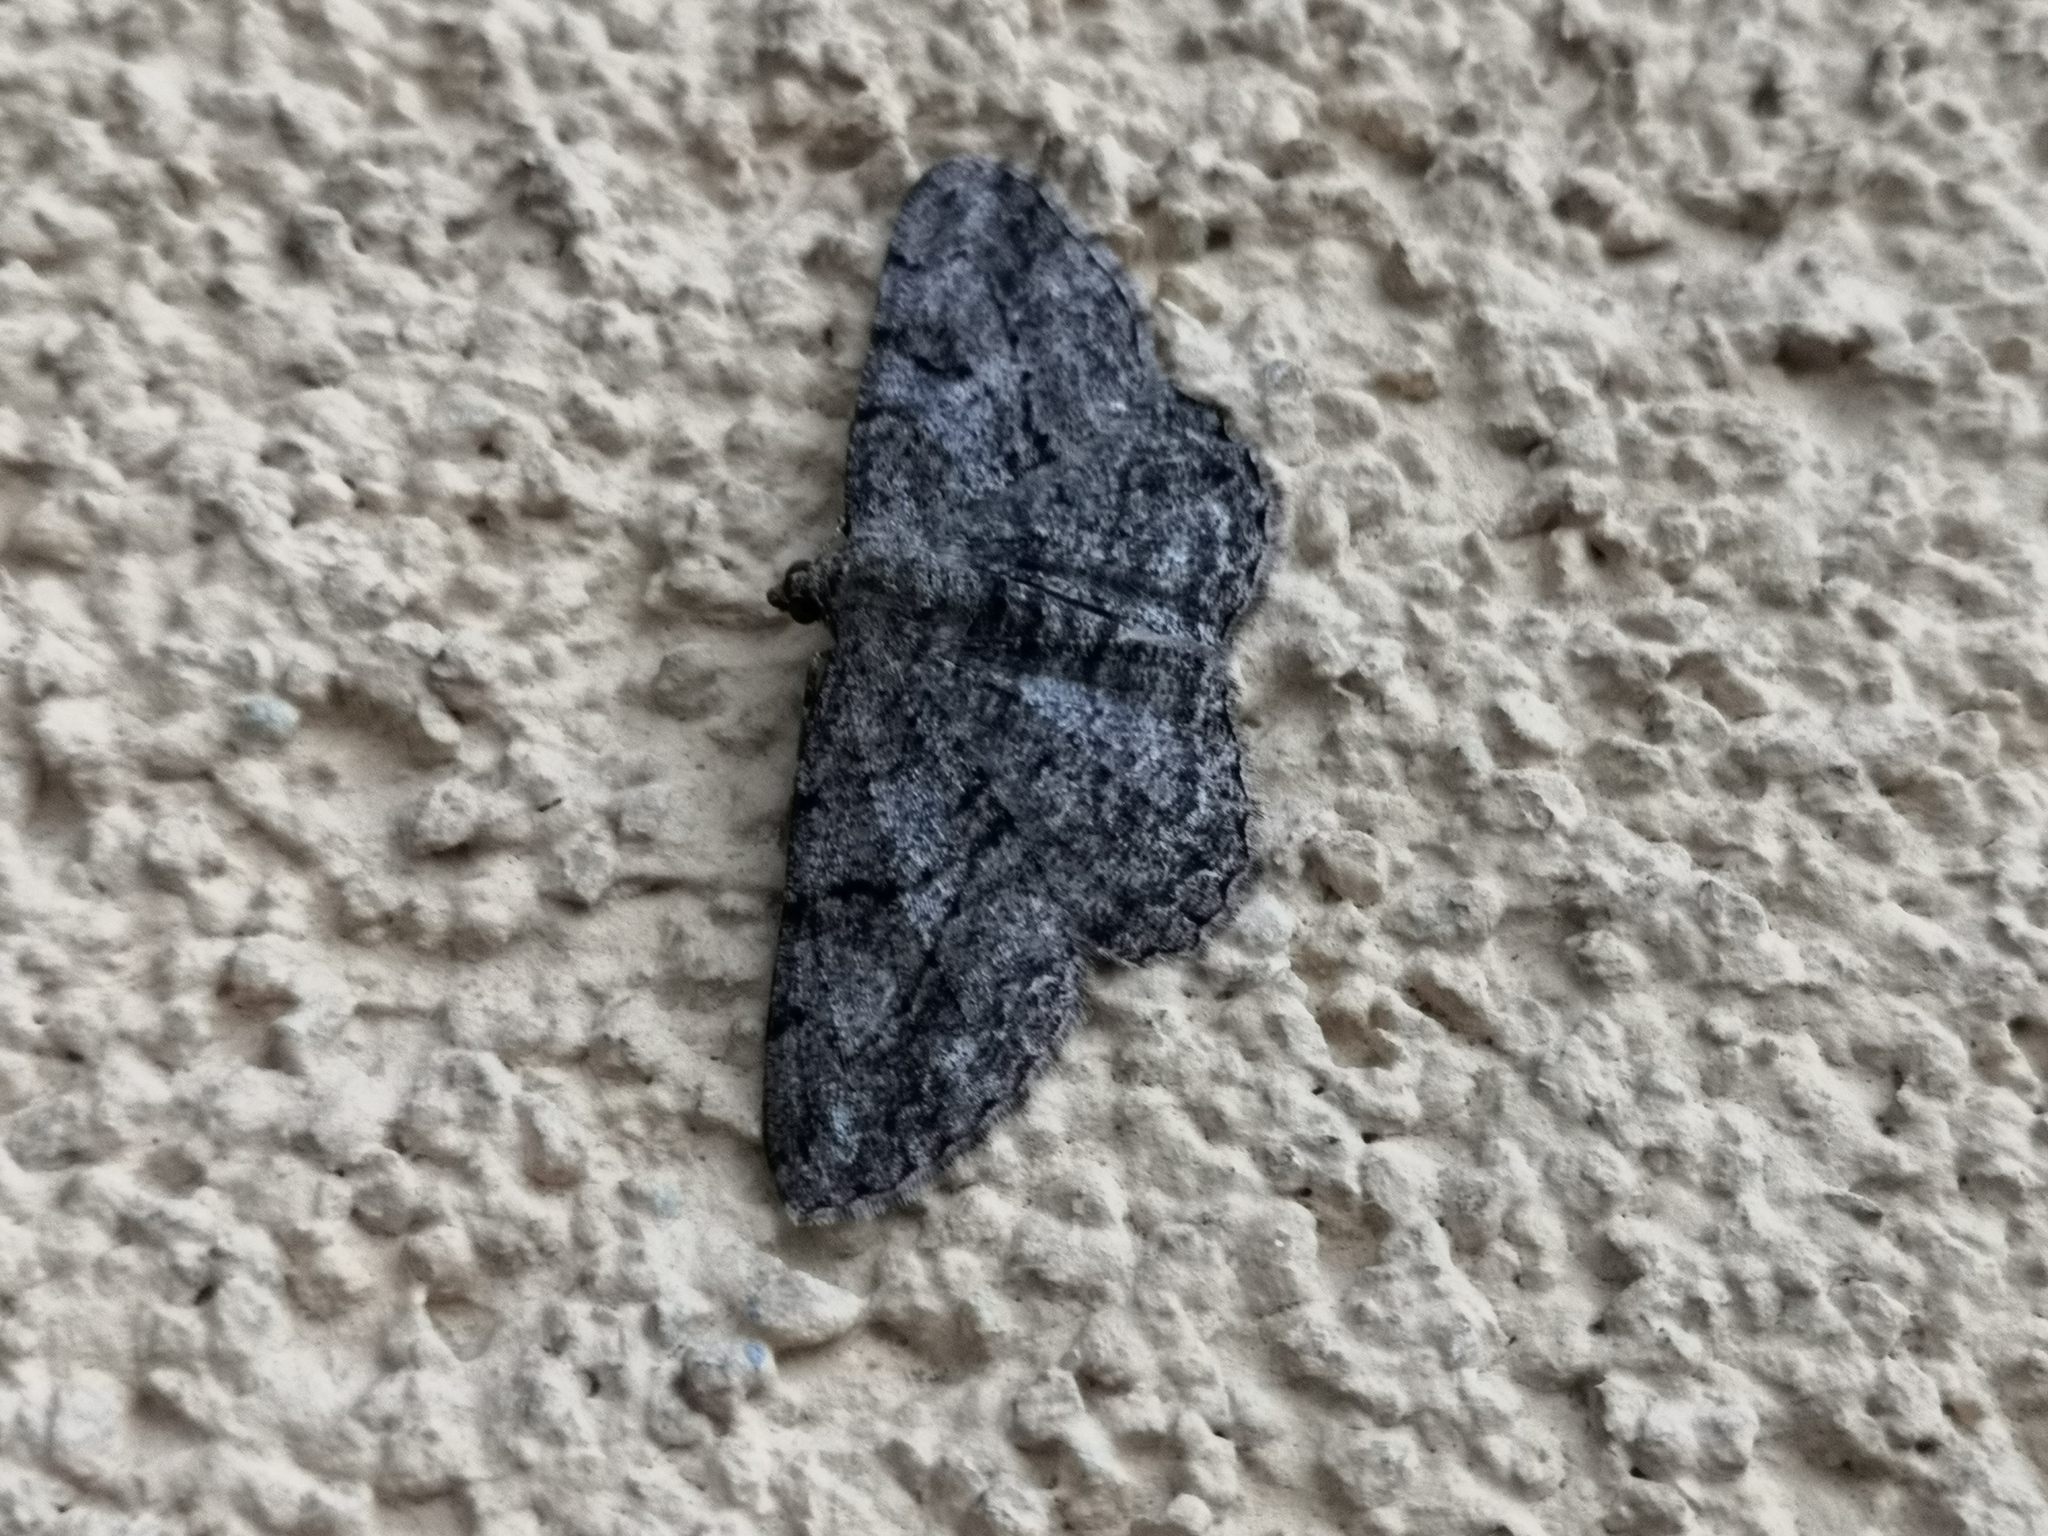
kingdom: Animalia
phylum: Arthropoda
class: Insecta
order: Lepidoptera
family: Geometridae
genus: Peribatodes
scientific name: Peribatodes rhomboidaria
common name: Willow beauty
